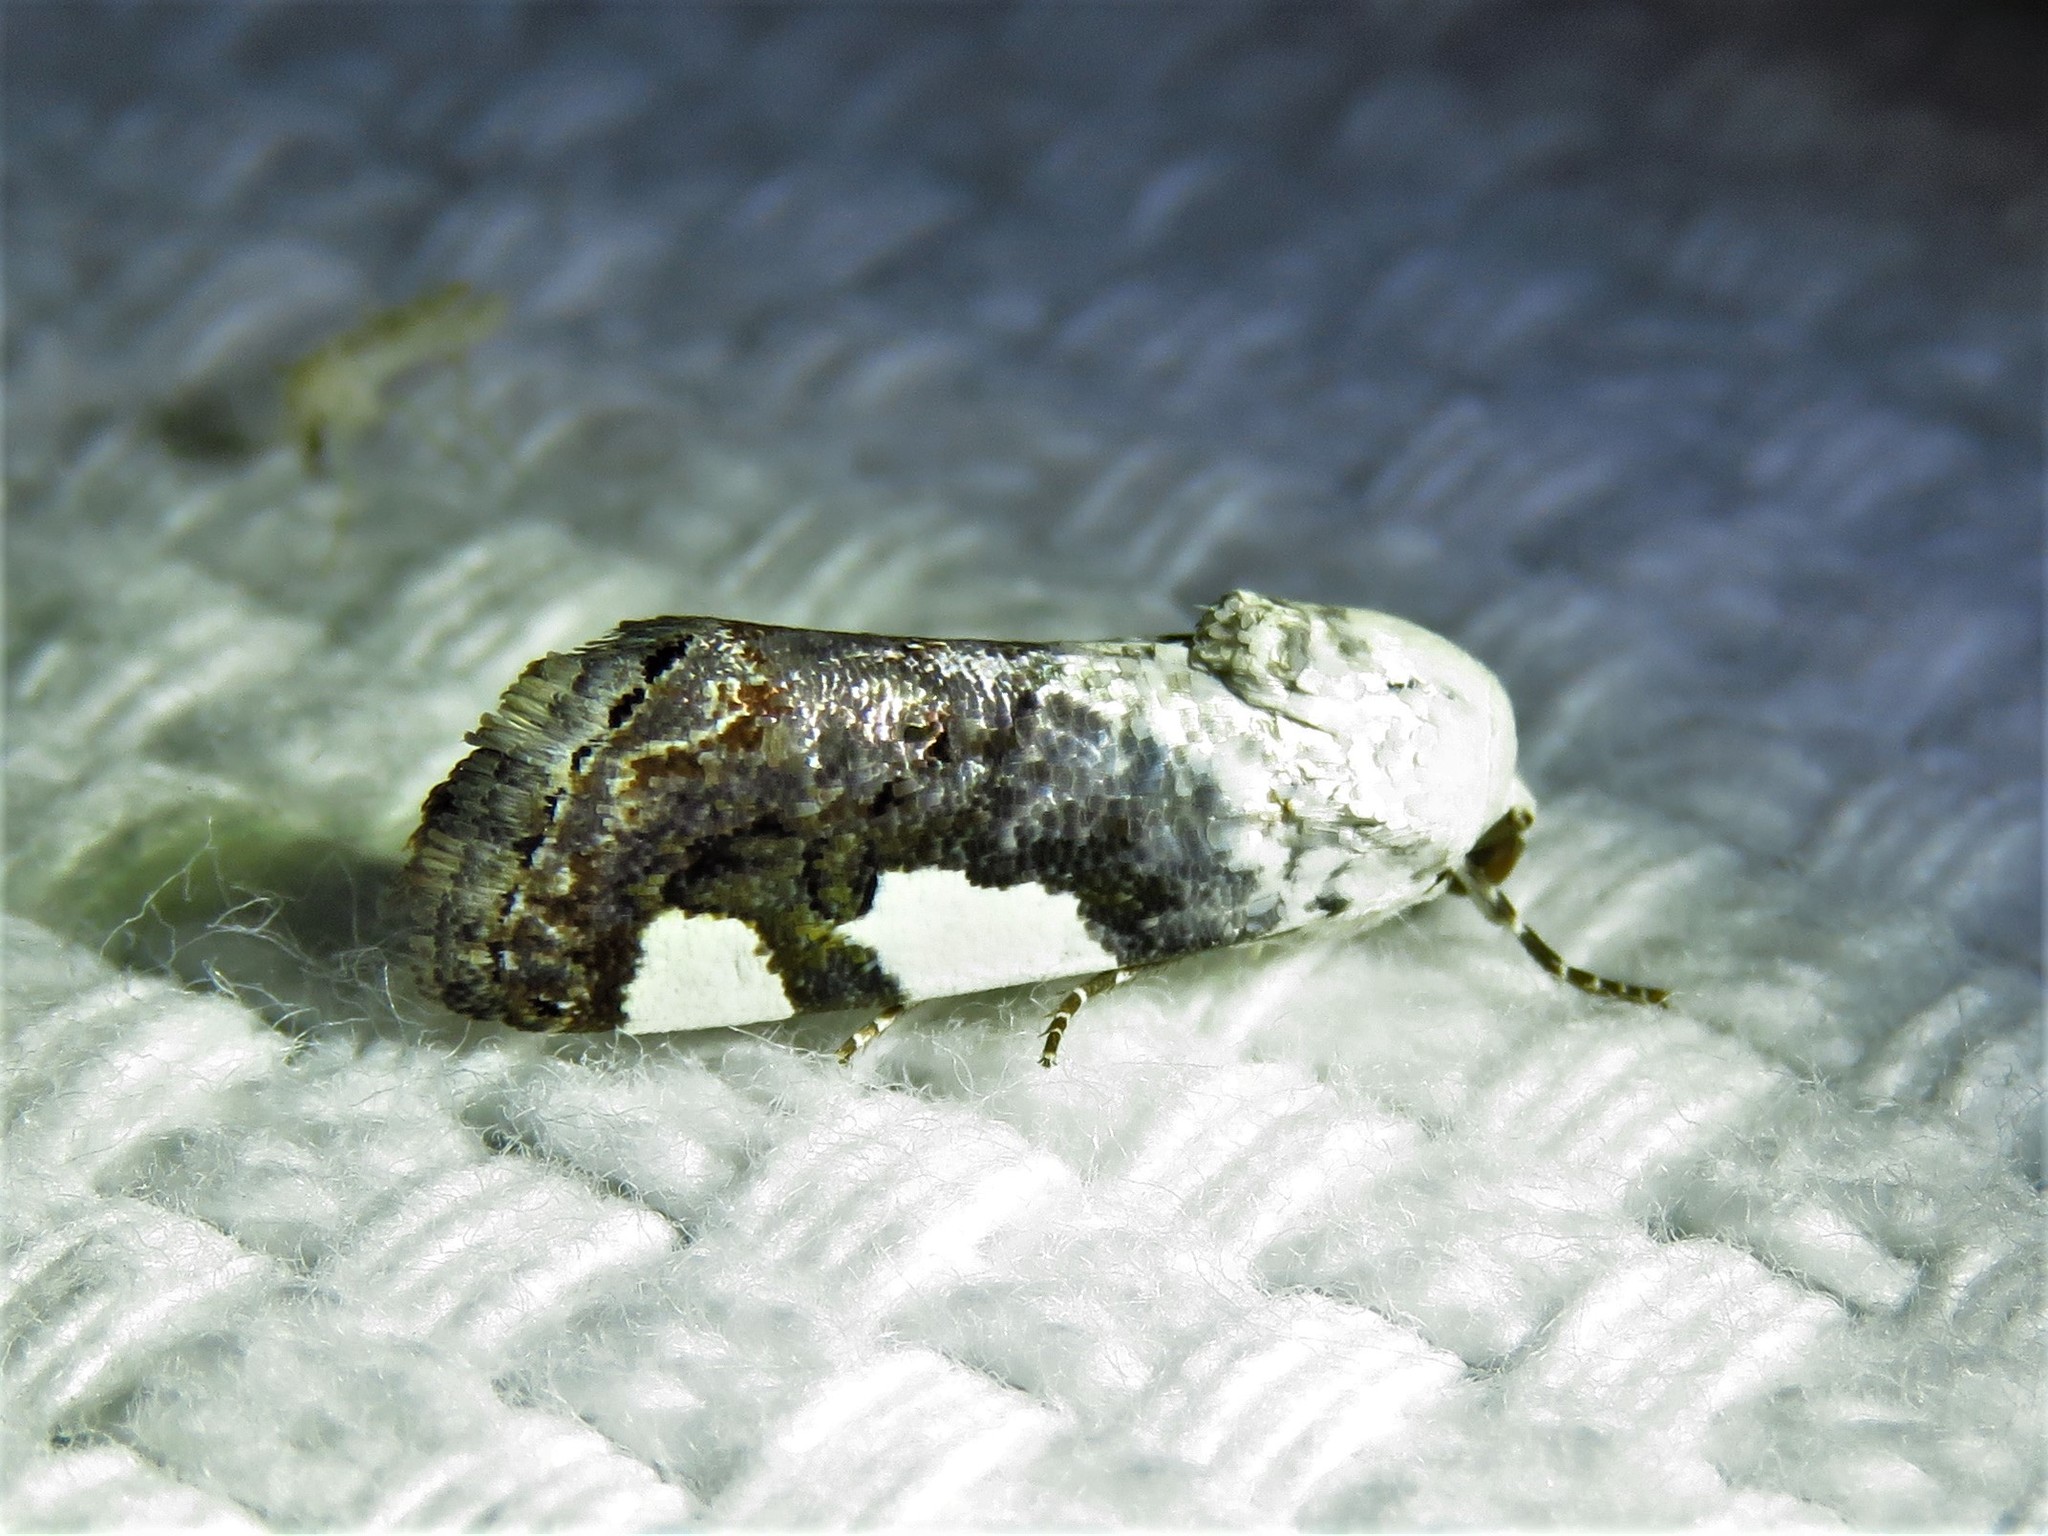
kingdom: Animalia
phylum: Arthropoda
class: Insecta
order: Lepidoptera
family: Noctuidae
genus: Acontia
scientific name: Acontia quadriplaga
